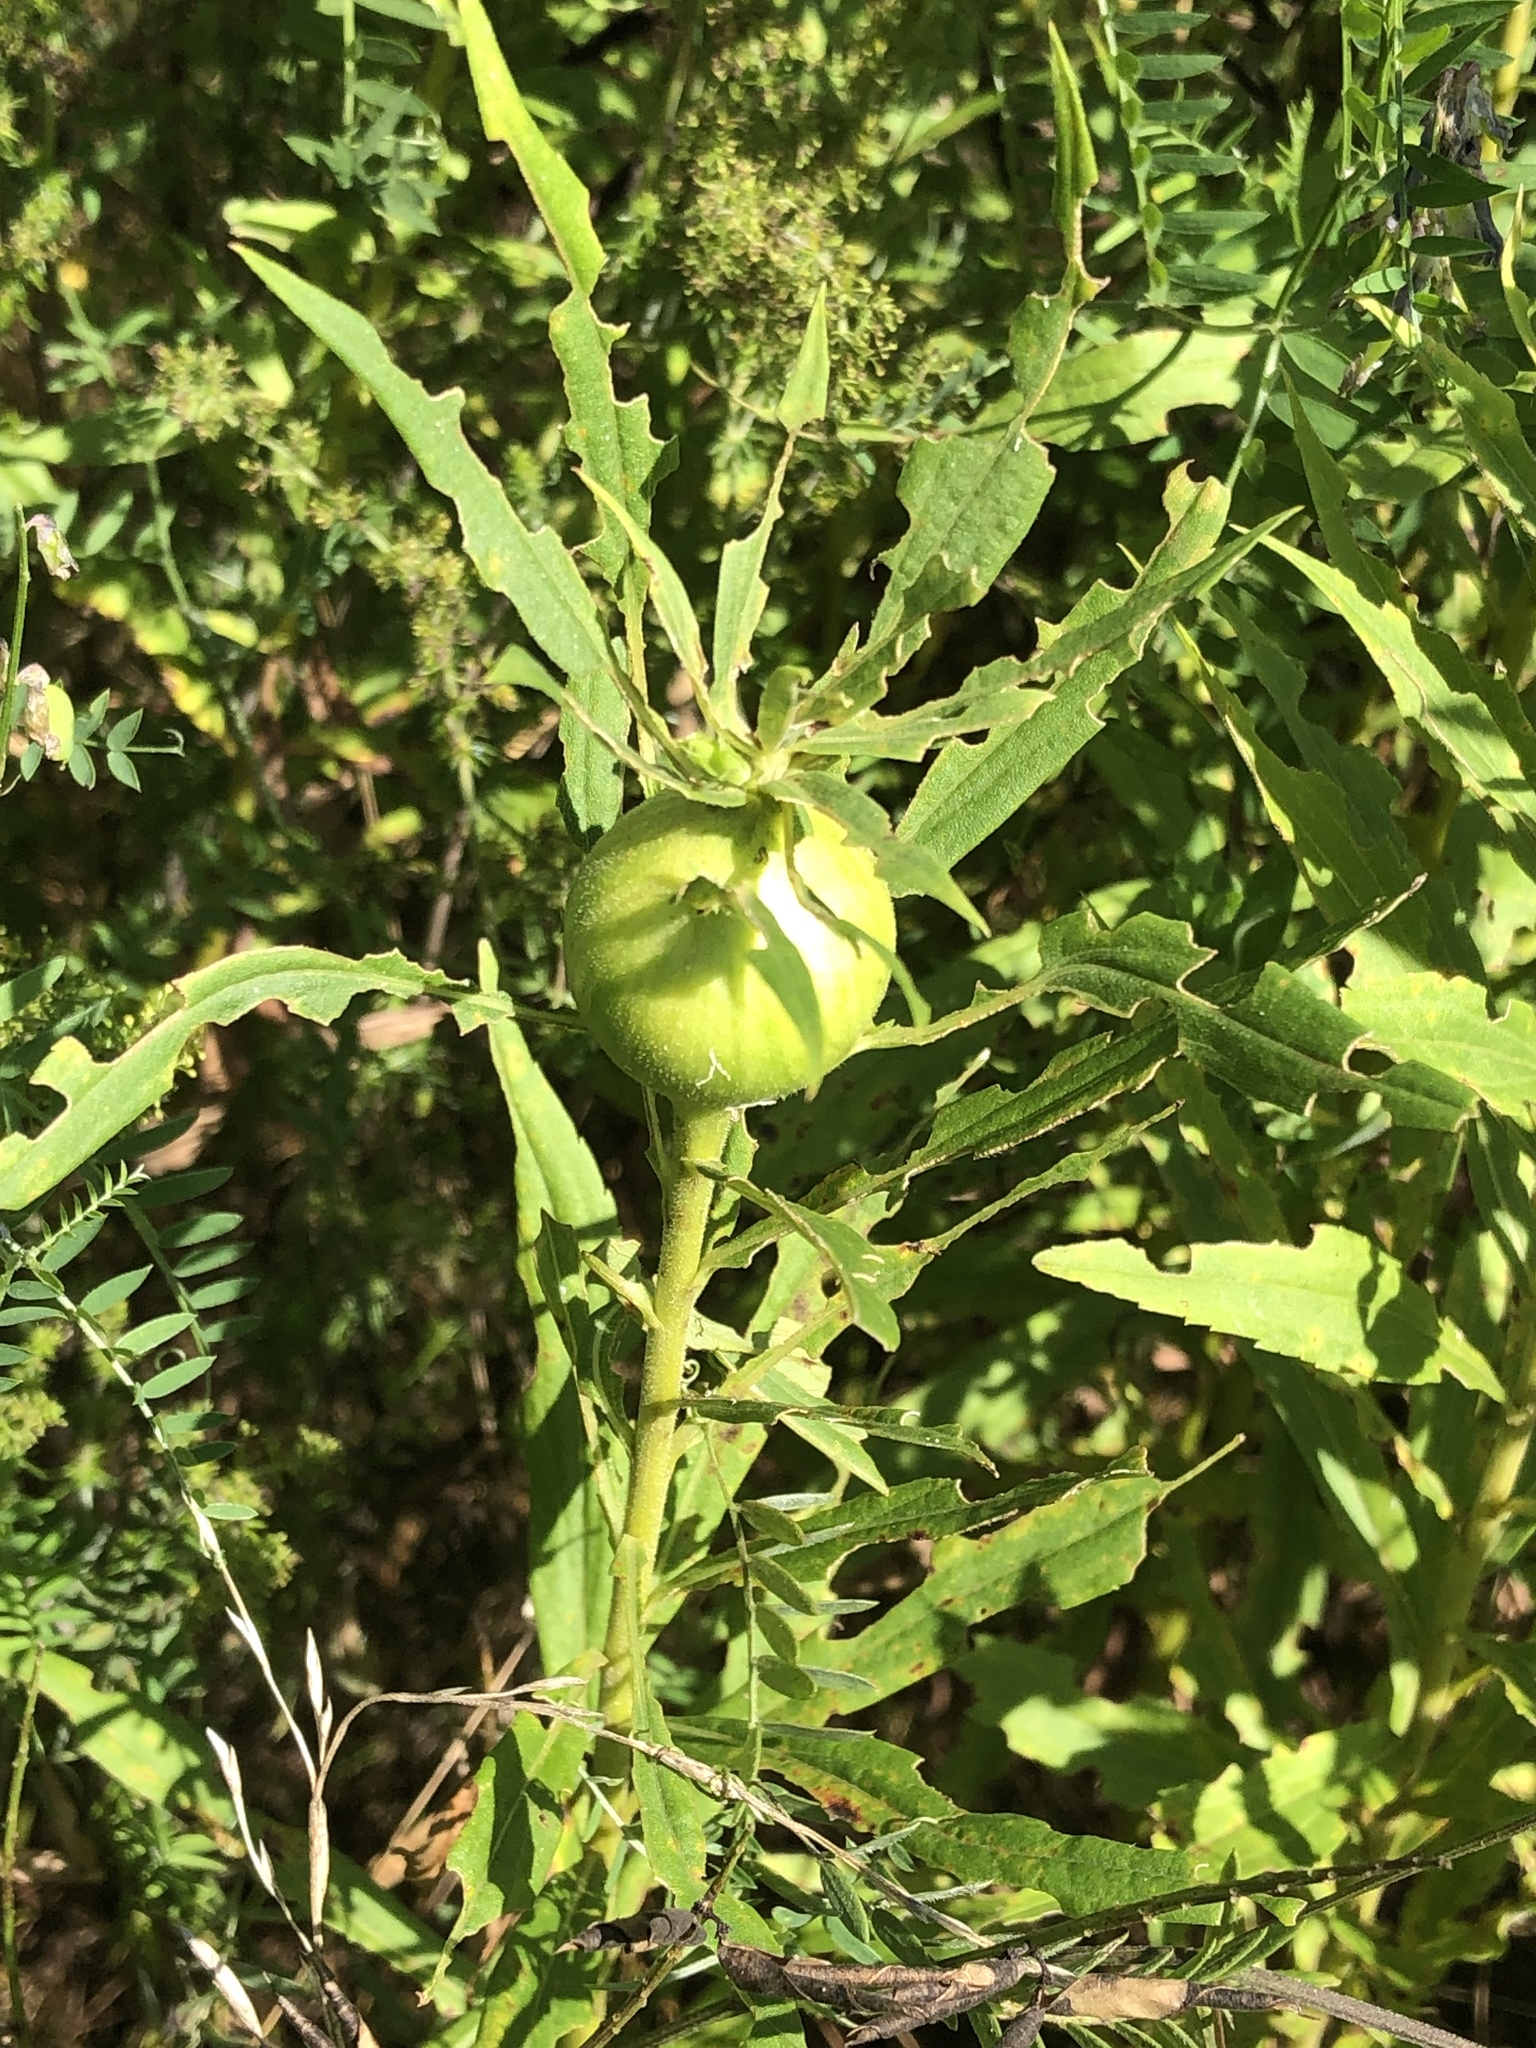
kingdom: Animalia
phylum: Arthropoda
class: Insecta
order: Diptera
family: Tephritidae
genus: Eurosta
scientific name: Eurosta solidaginis
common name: Goldenrod gall fly
